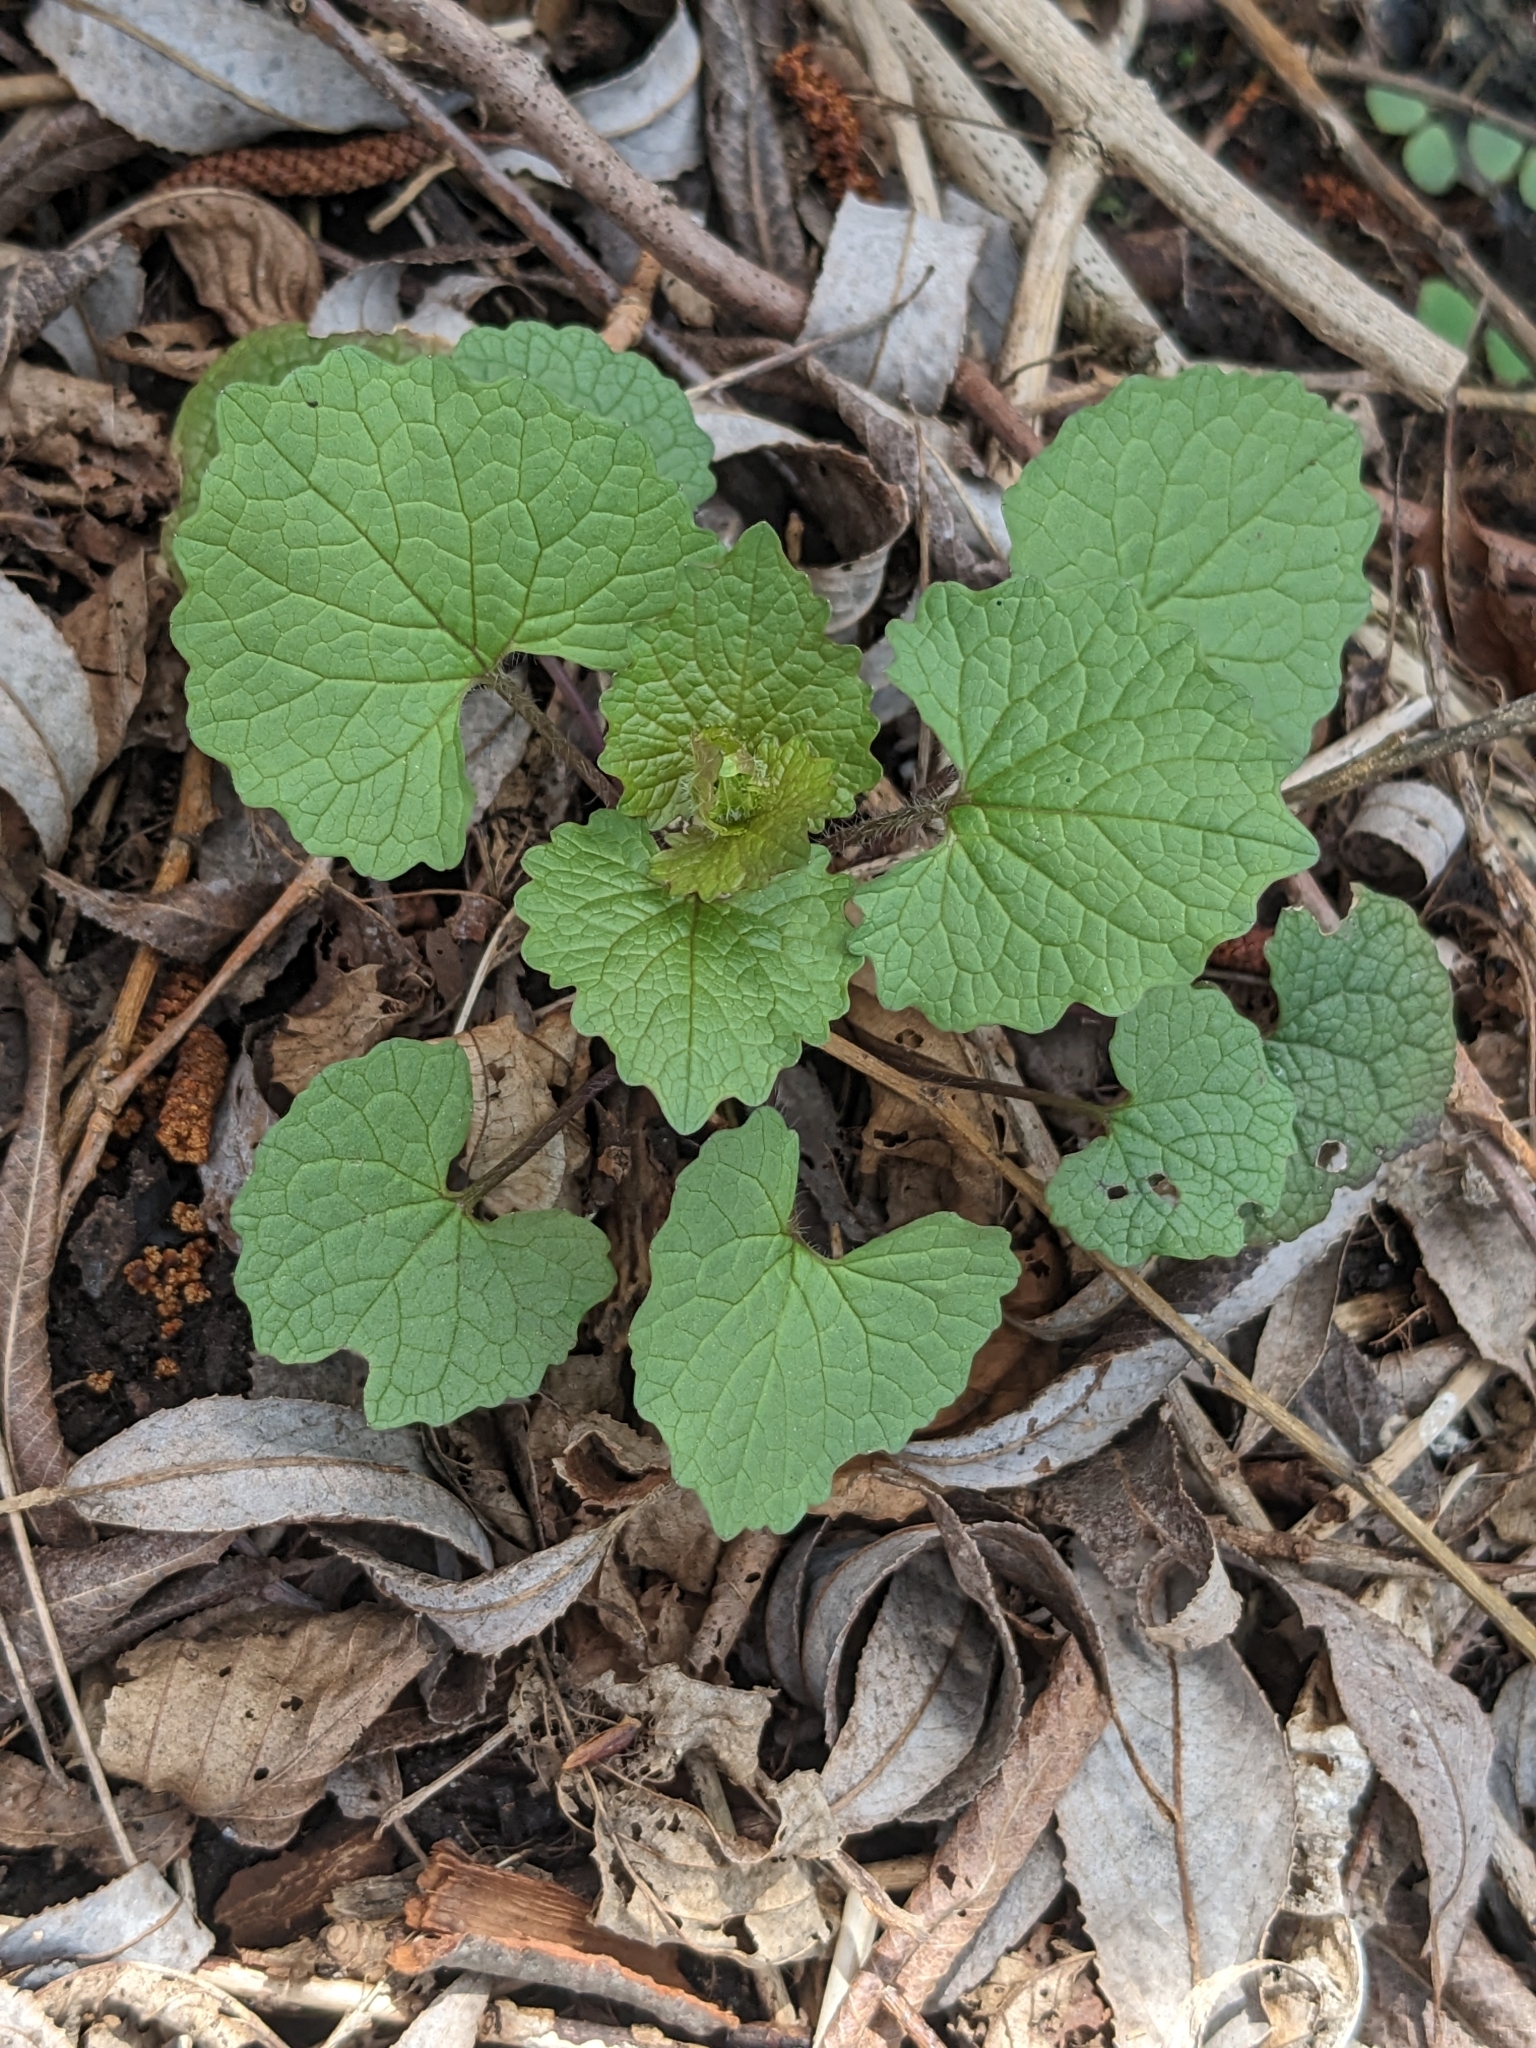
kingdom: Plantae
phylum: Tracheophyta
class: Magnoliopsida
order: Brassicales
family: Brassicaceae
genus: Alliaria
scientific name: Alliaria petiolata
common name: Garlic mustard
